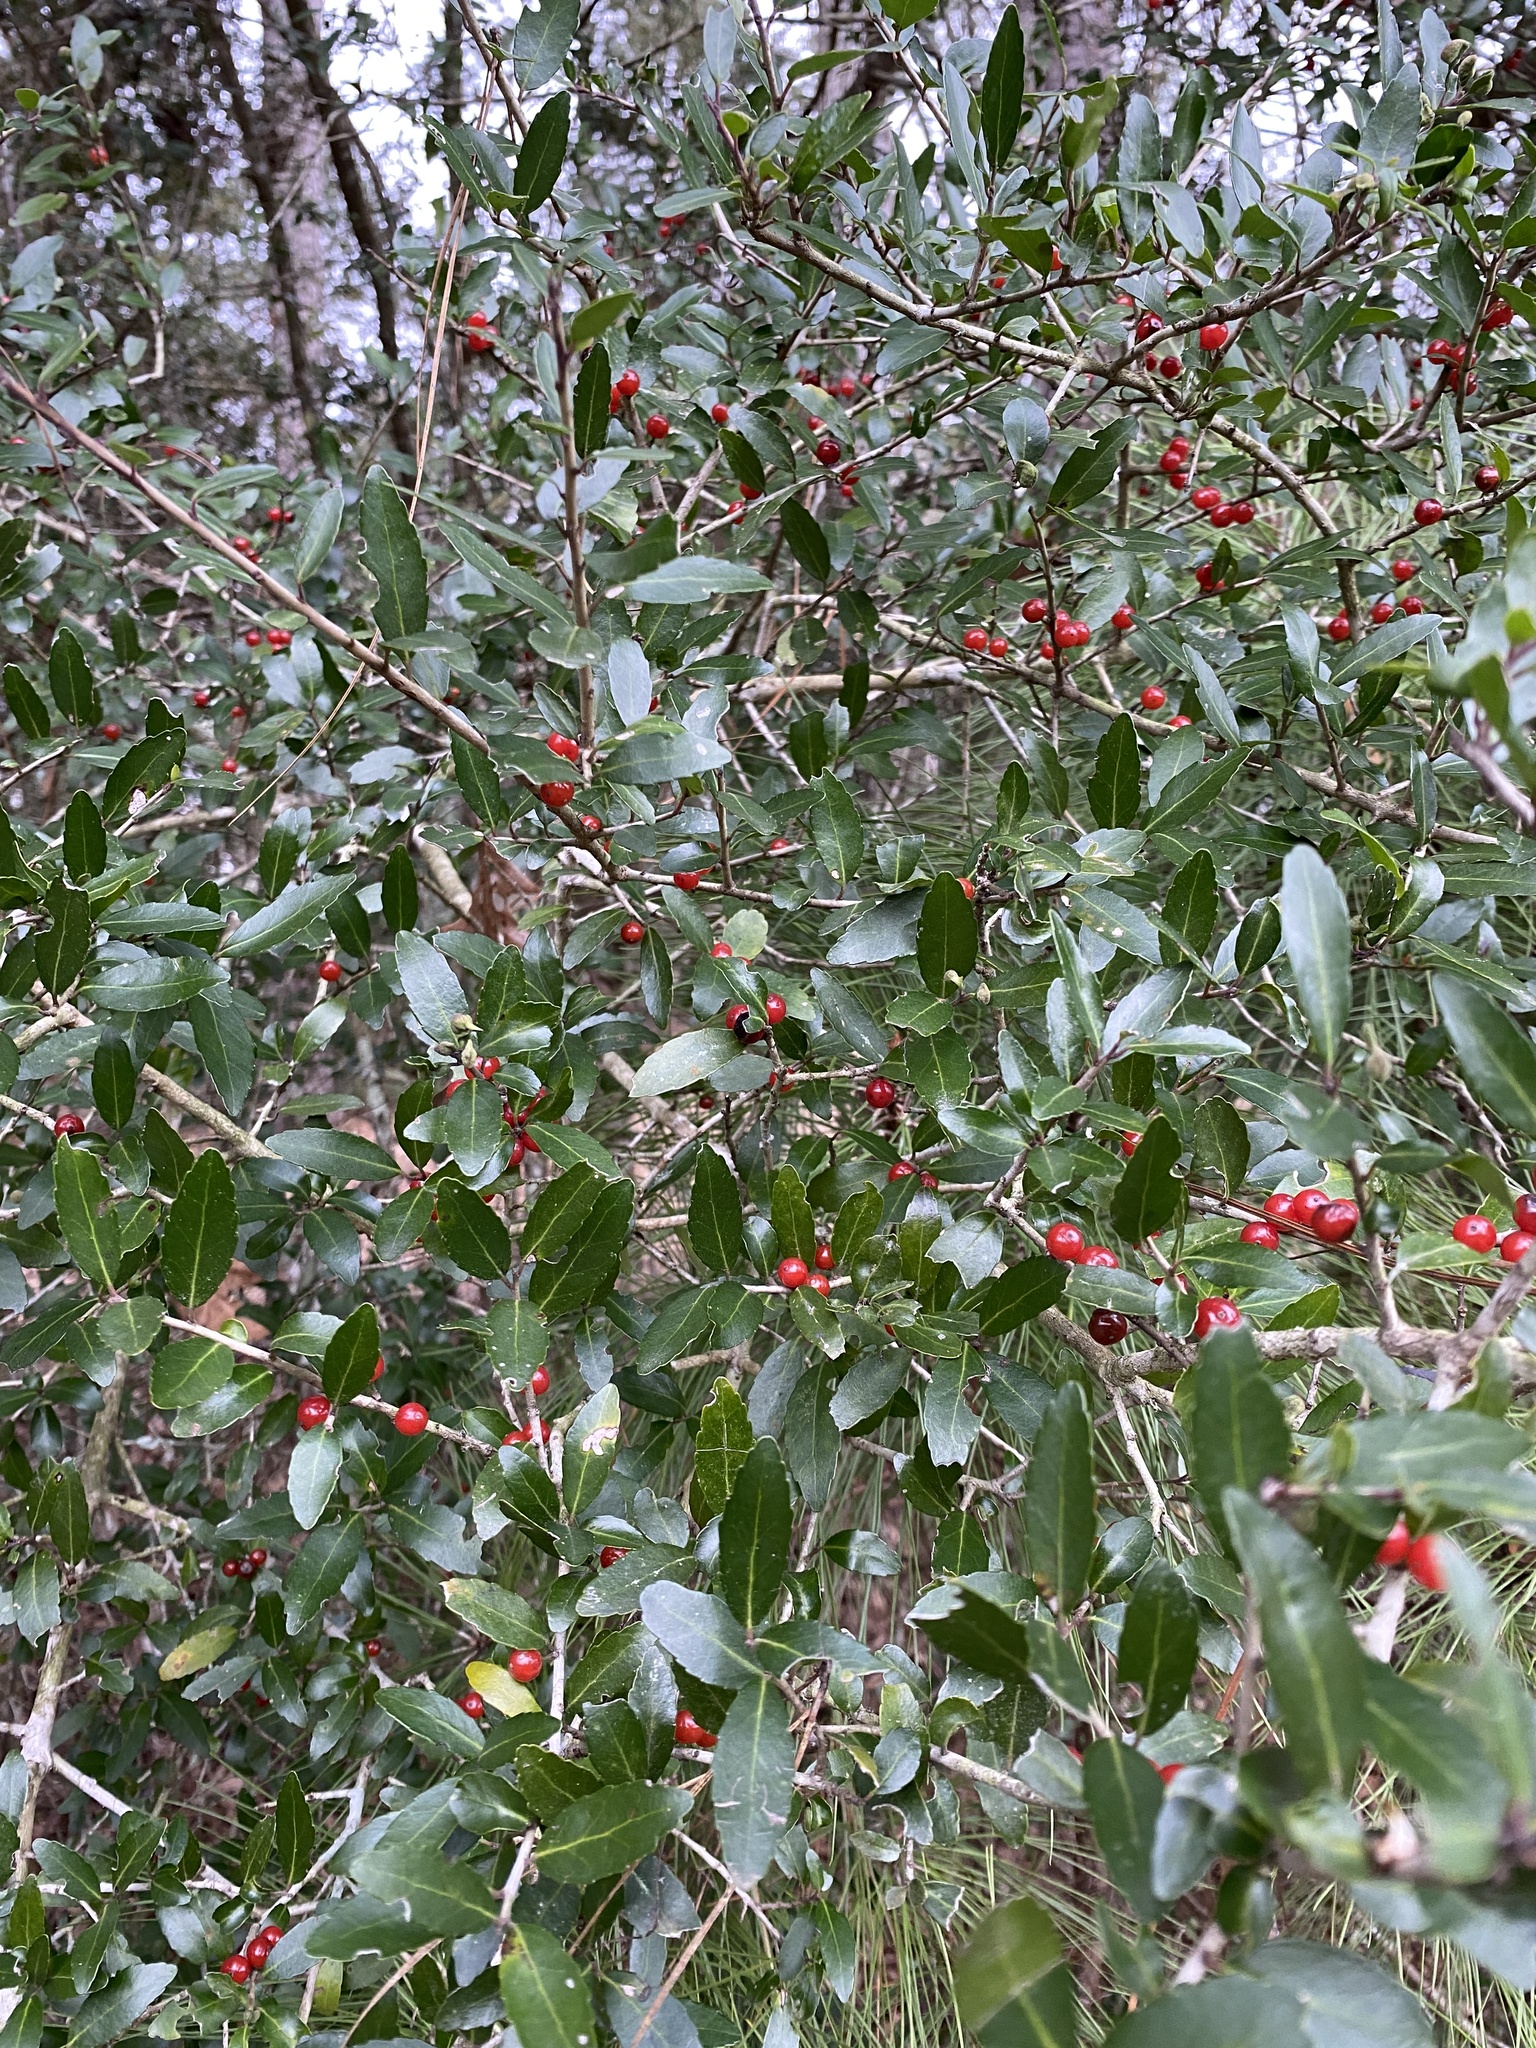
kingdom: Plantae
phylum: Tracheophyta
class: Magnoliopsida
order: Aquifoliales
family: Aquifoliaceae
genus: Ilex
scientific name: Ilex vomitoria
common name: Yaupon holly
